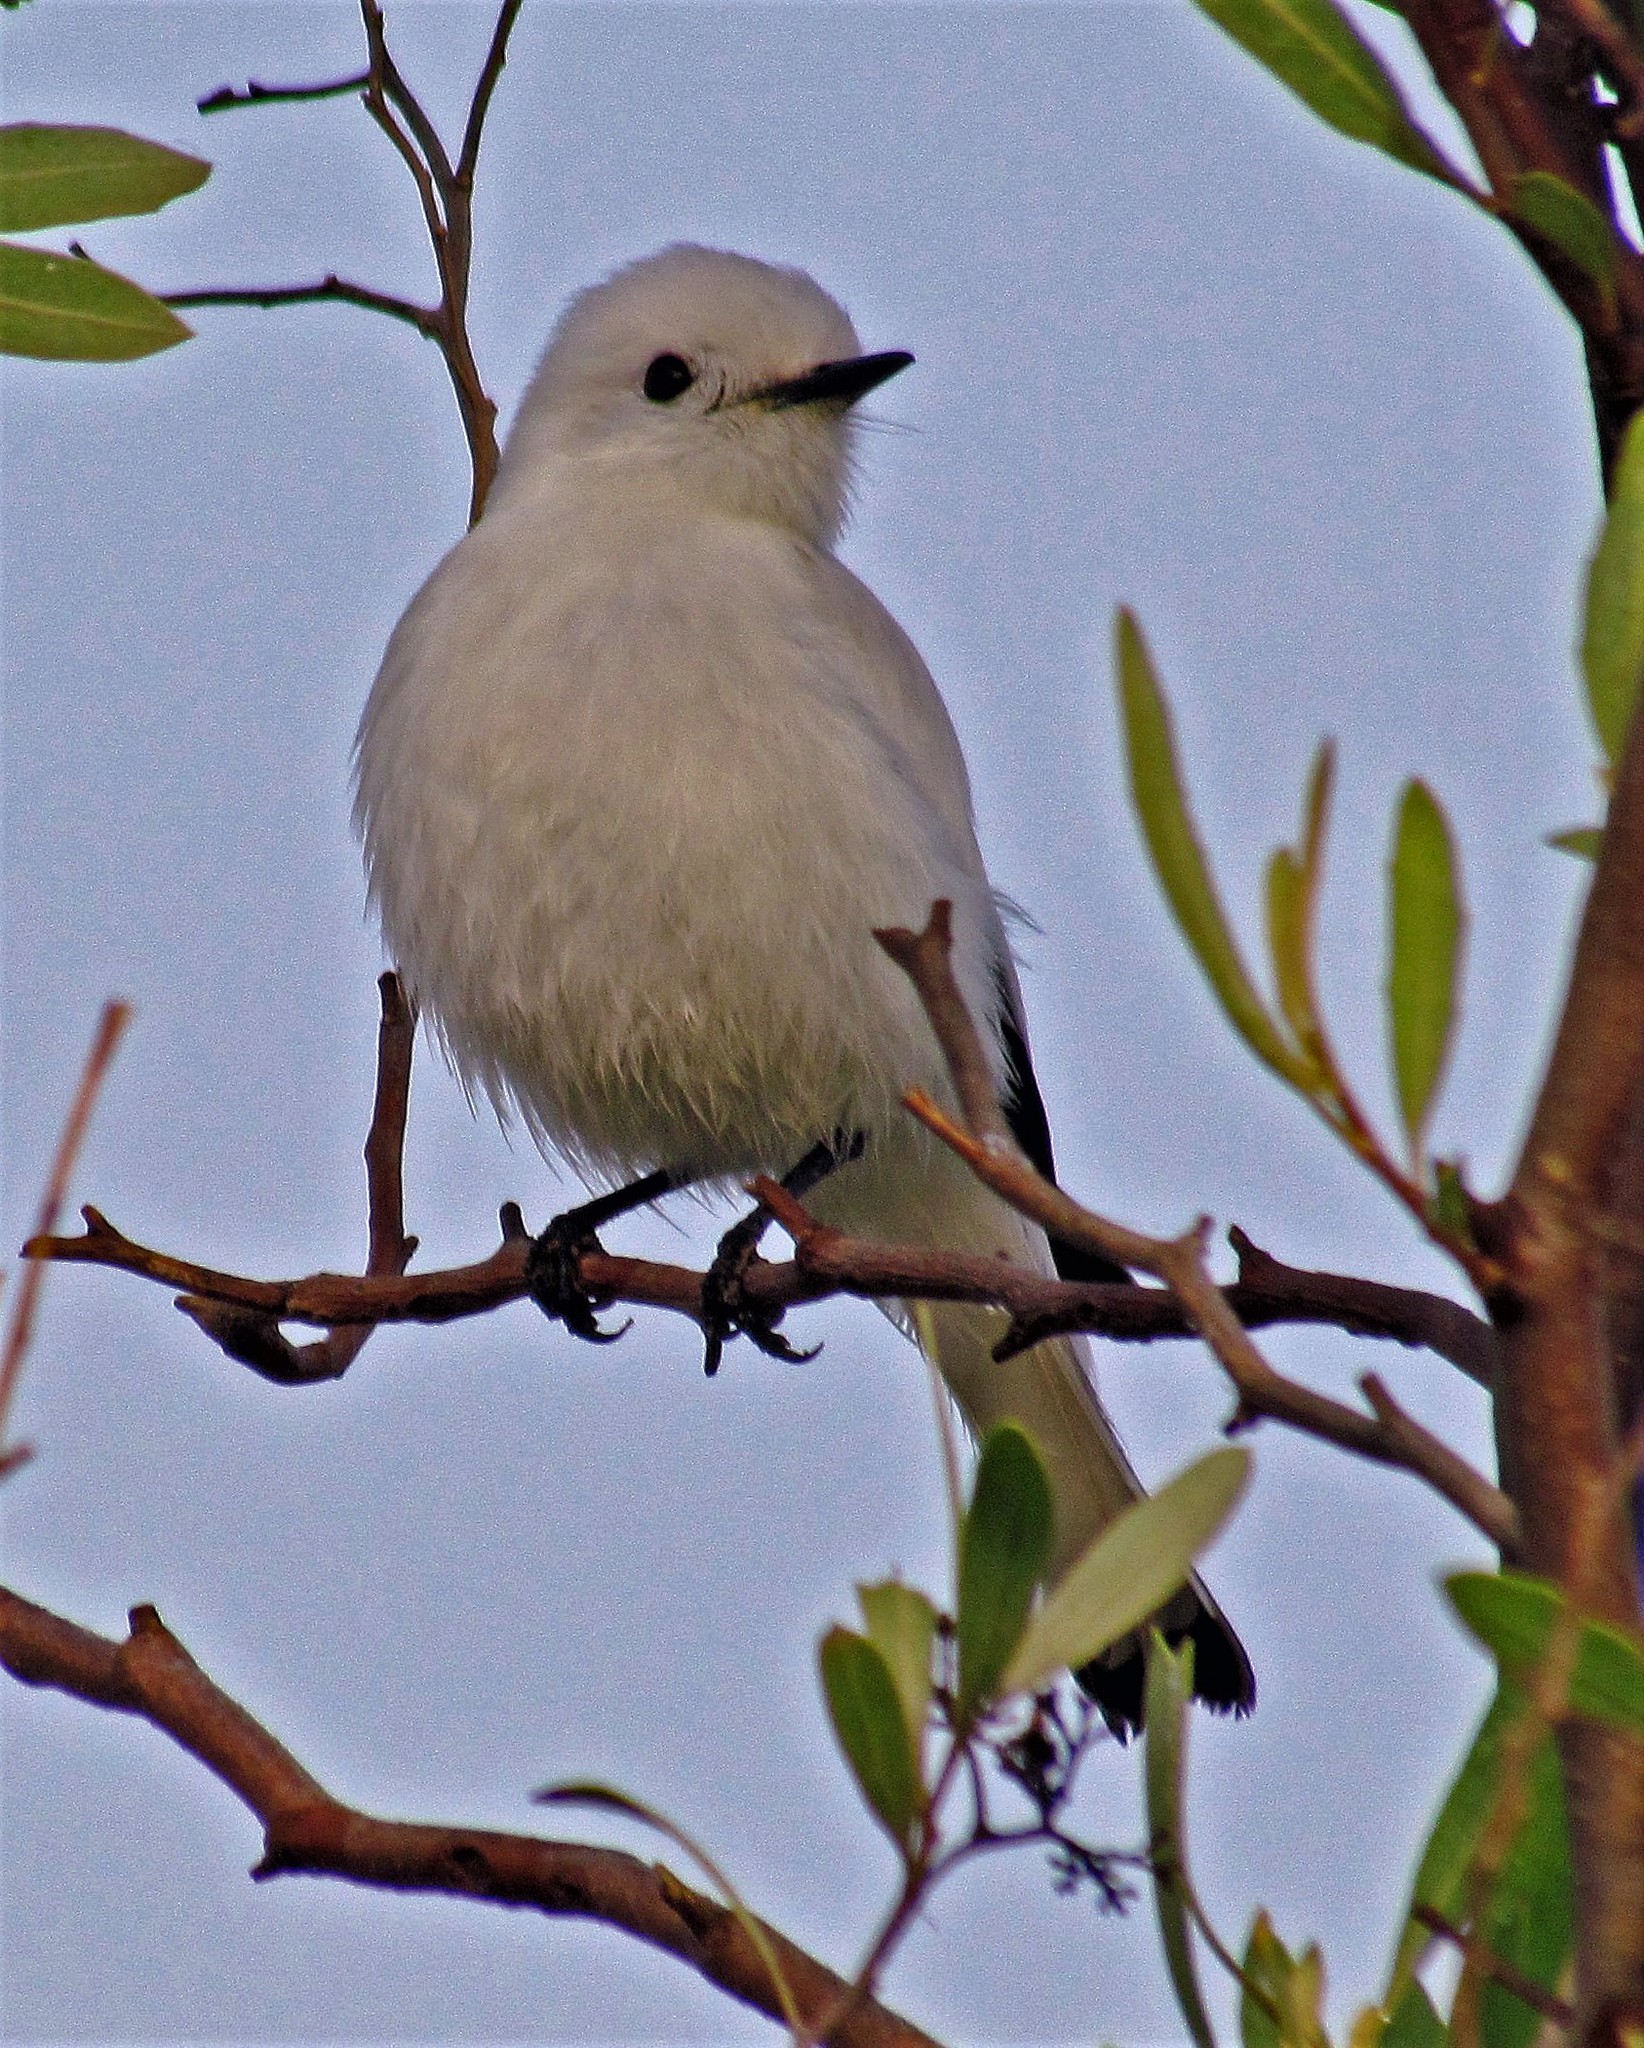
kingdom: Animalia
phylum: Chordata
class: Aves
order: Passeriformes
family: Tyrannidae
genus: Xolmis
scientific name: Xolmis irupero
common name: White monjita
